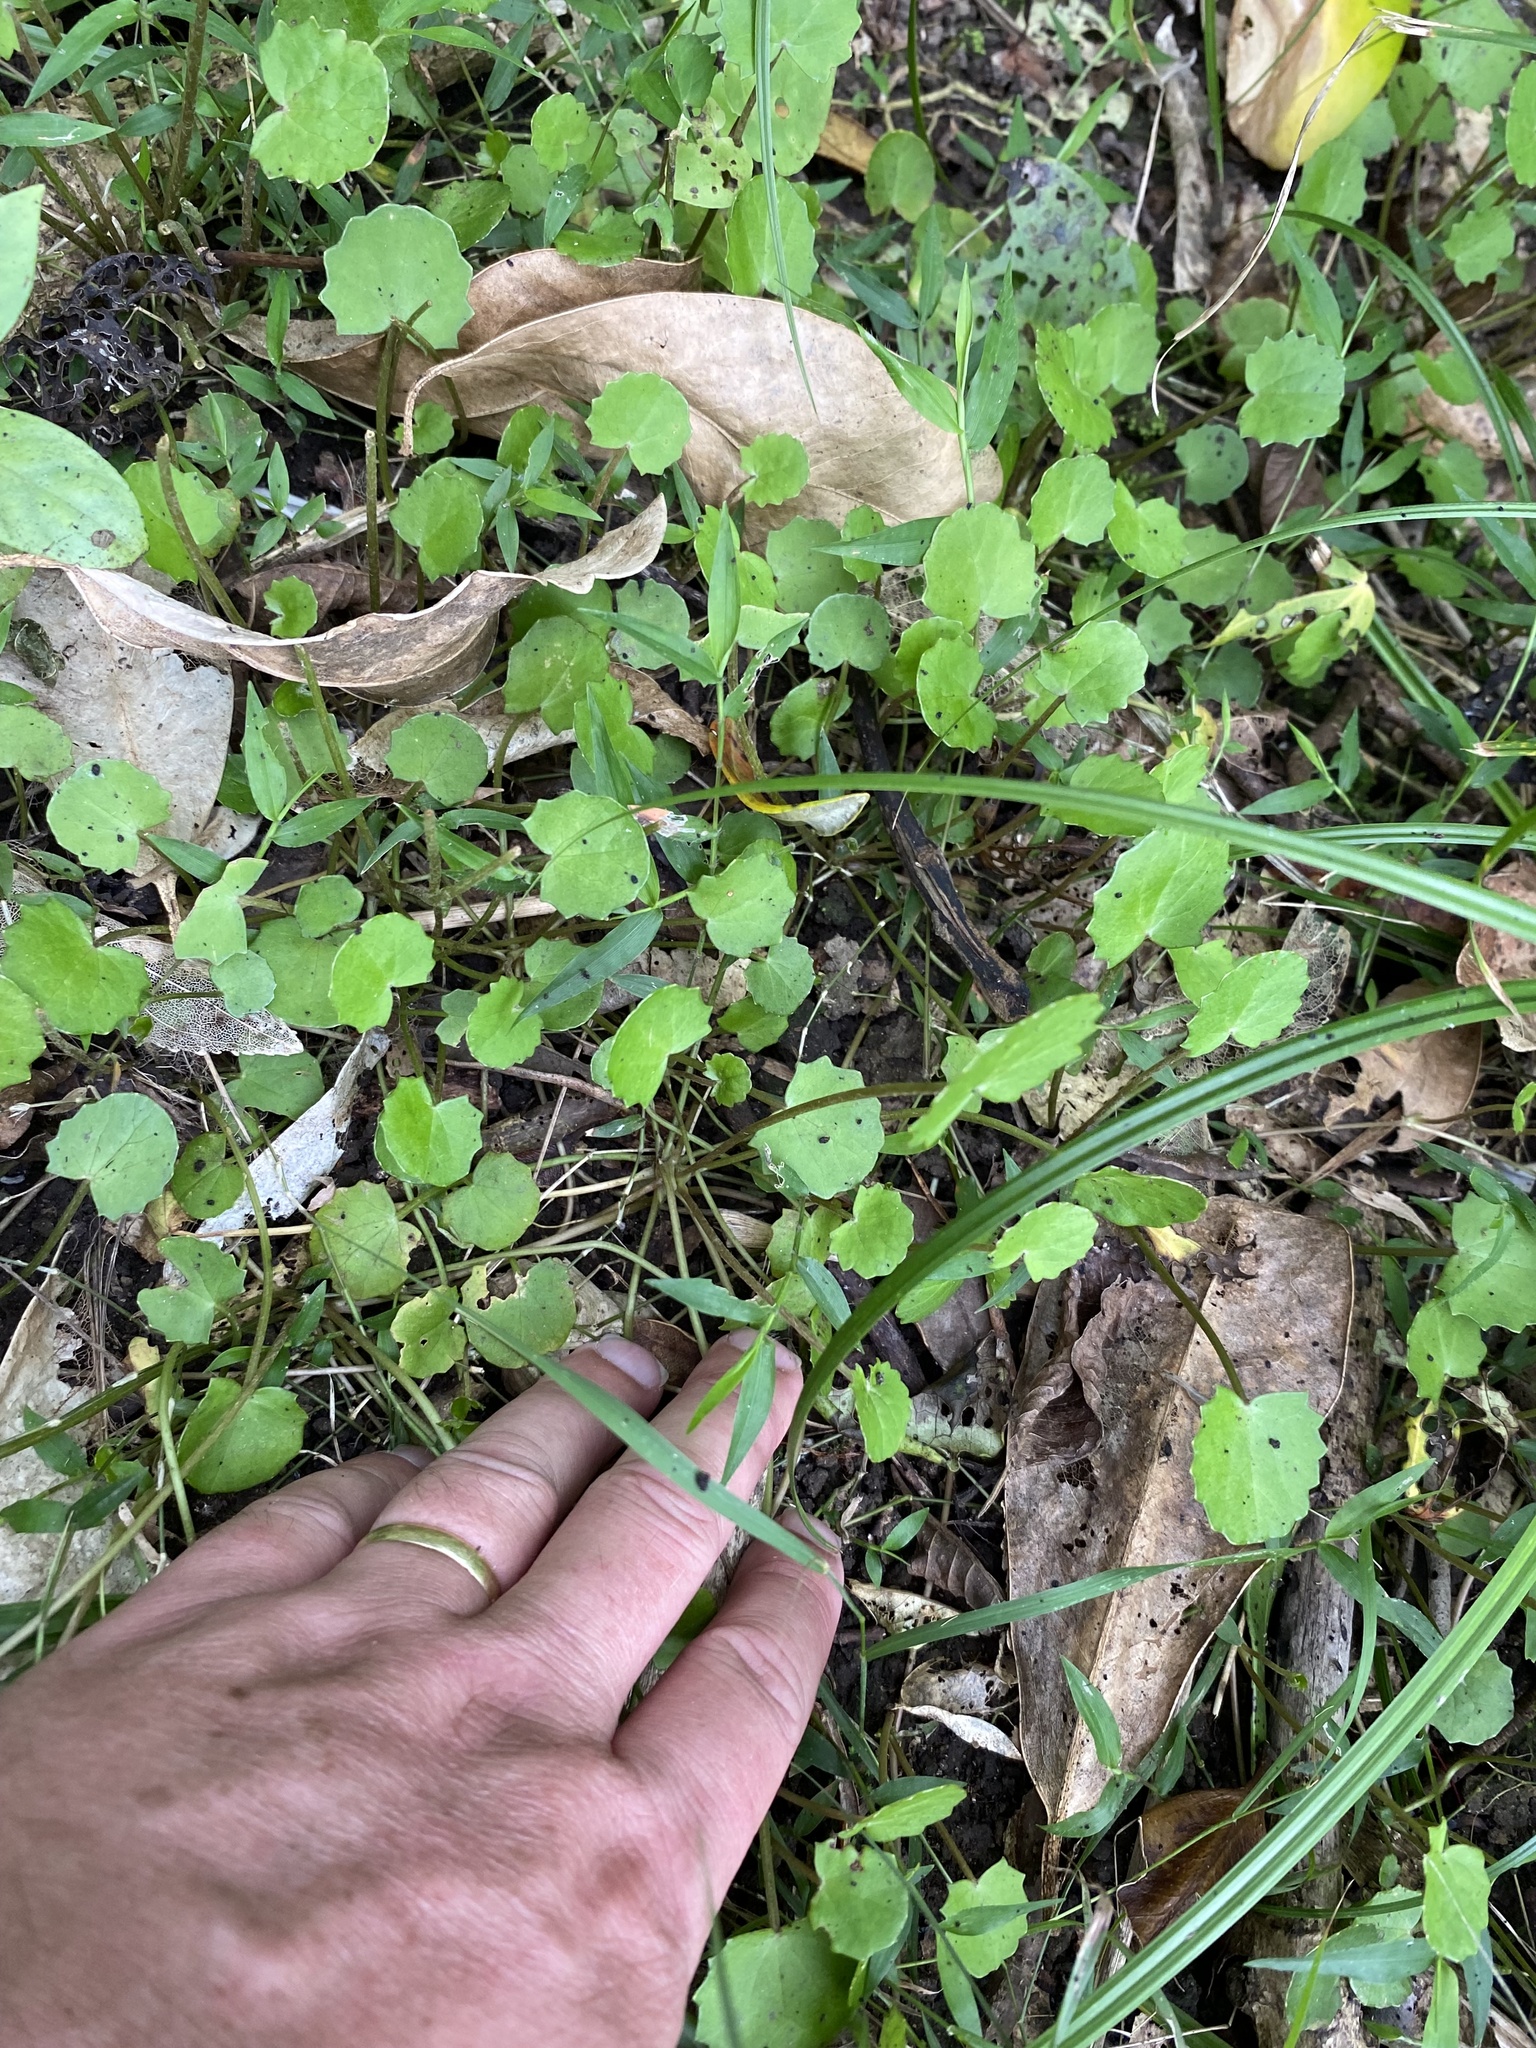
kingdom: Plantae
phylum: Tracheophyta
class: Magnoliopsida
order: Apiales
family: Apiaceae
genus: Centella
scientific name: Centella uniflora
